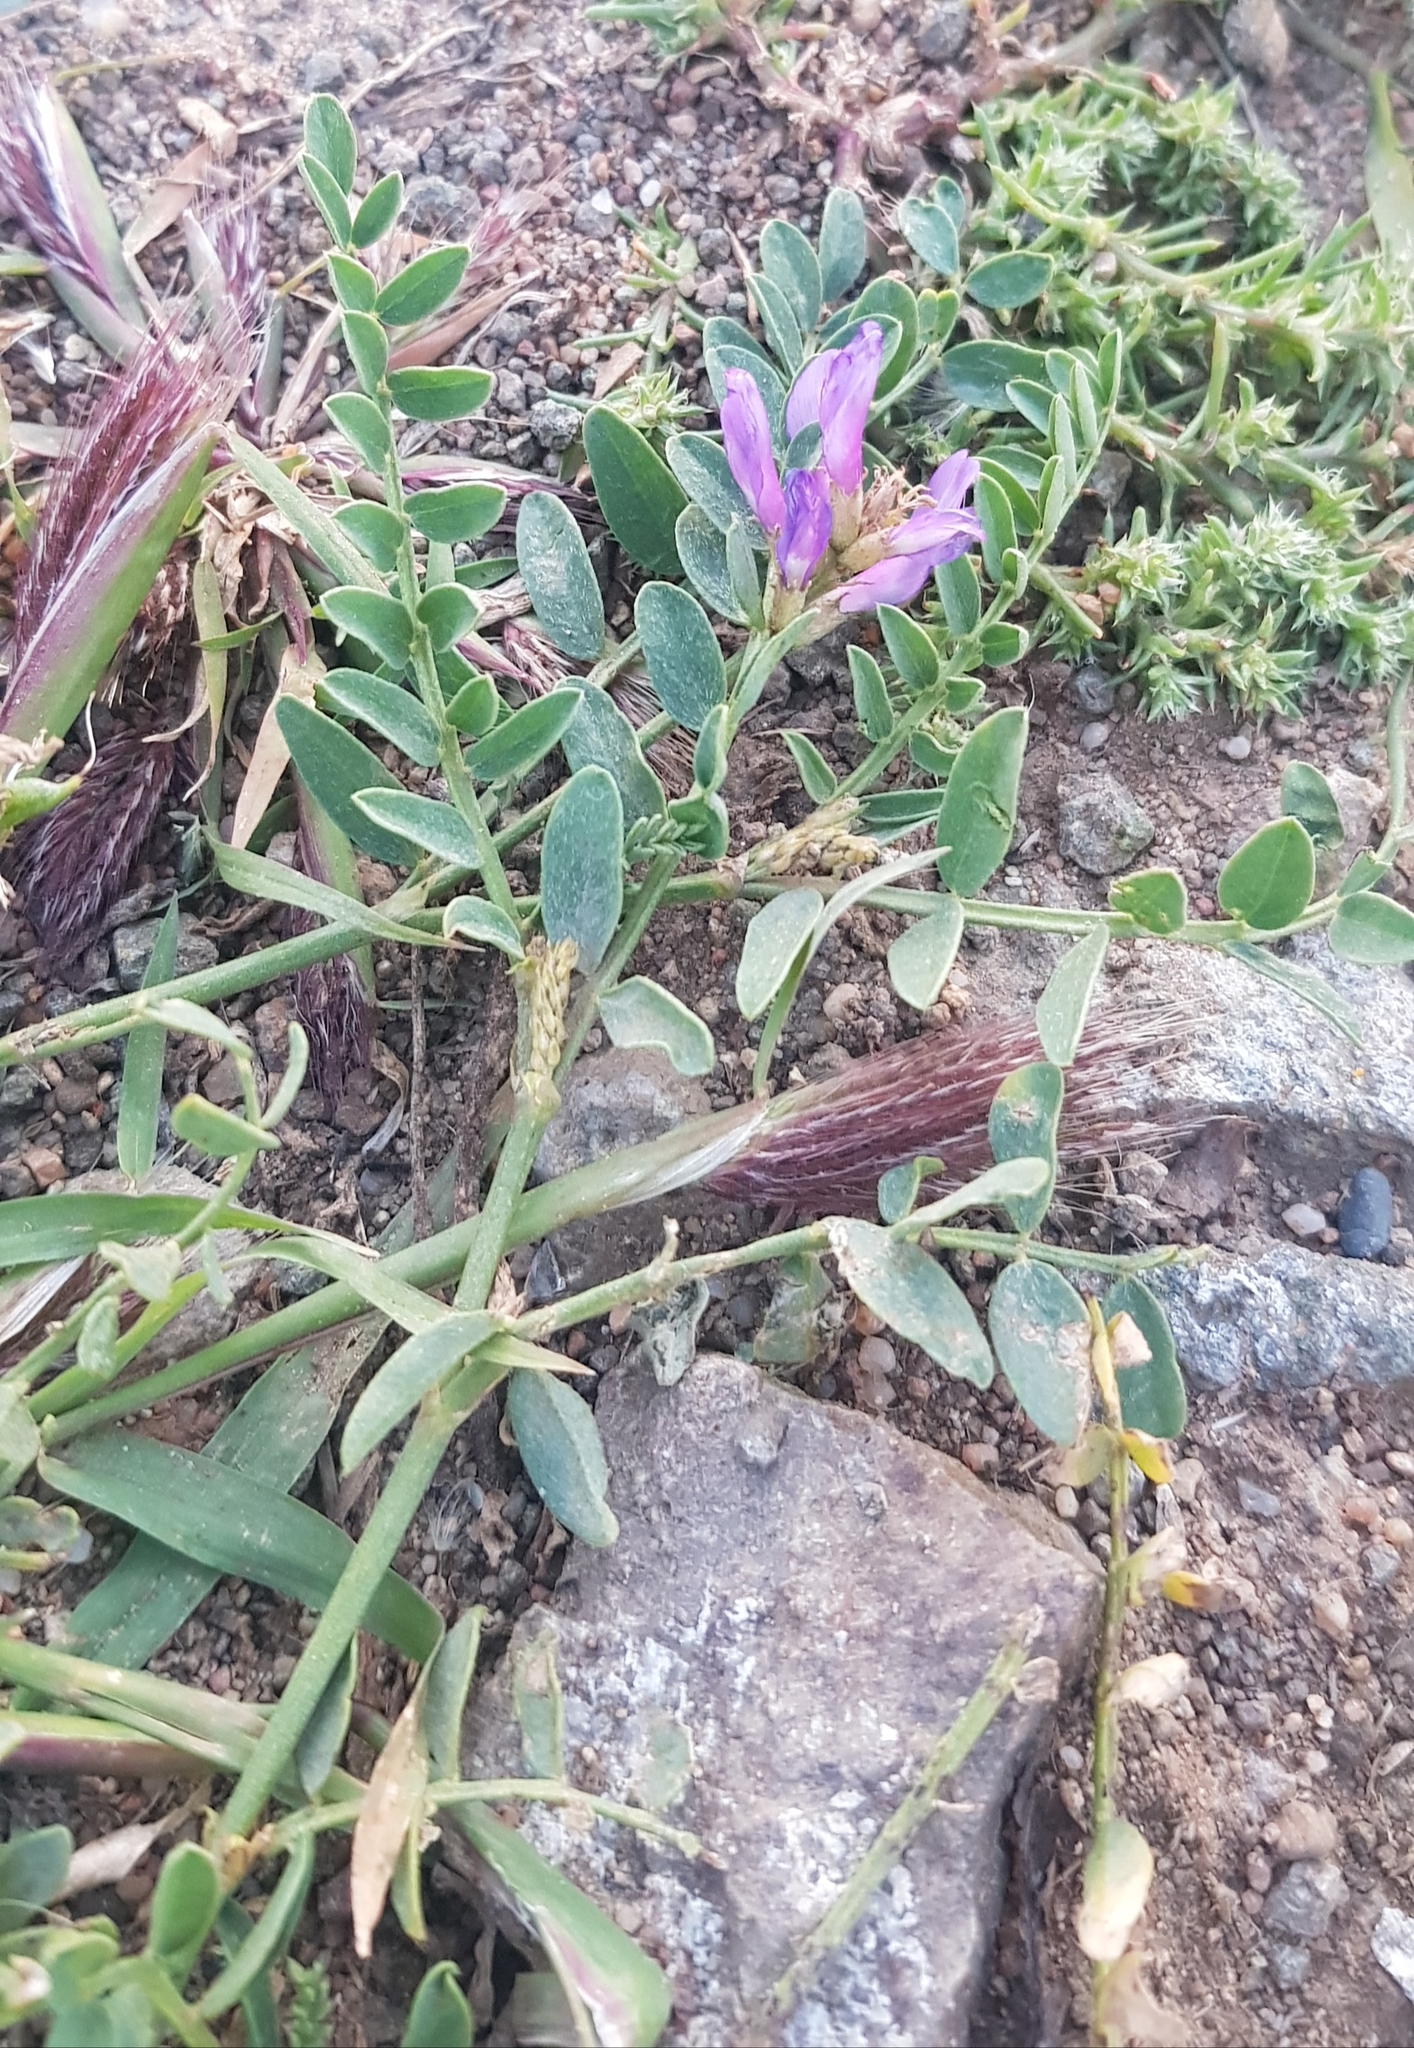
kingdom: Plantae
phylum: Tracheophyta
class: Magnoliopsida
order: Fabales
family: Fabaceae
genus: Astragalus
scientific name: Astragalus laxmannii
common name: Laxmann's milk-vetch
